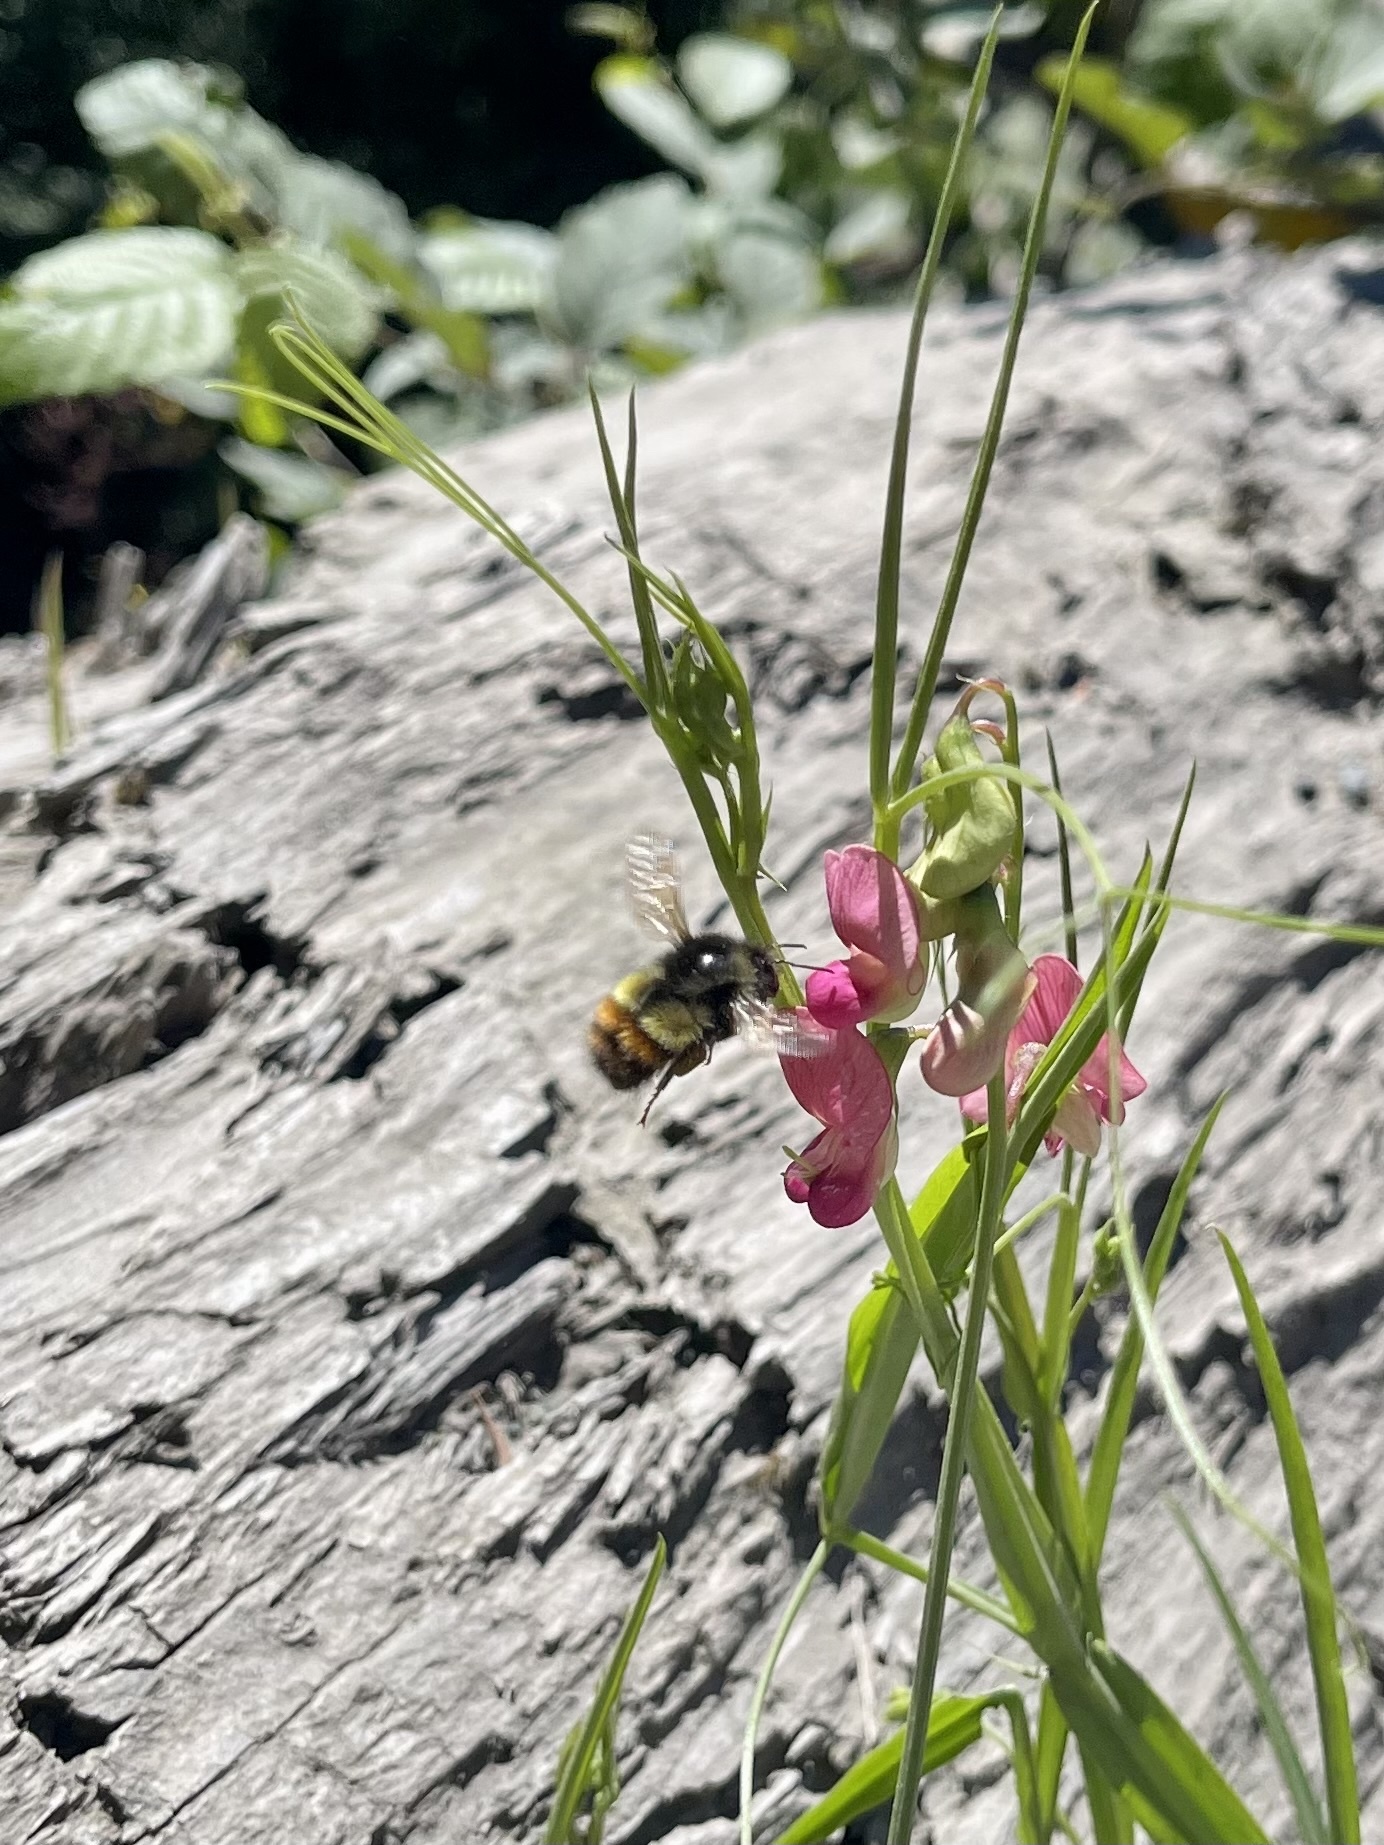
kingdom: Animalia
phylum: Arthropoda
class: Insecta
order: Hymenoptera
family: Apidae
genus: Bombus
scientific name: Bombus flavifrons
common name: Yellow head bumble bee
